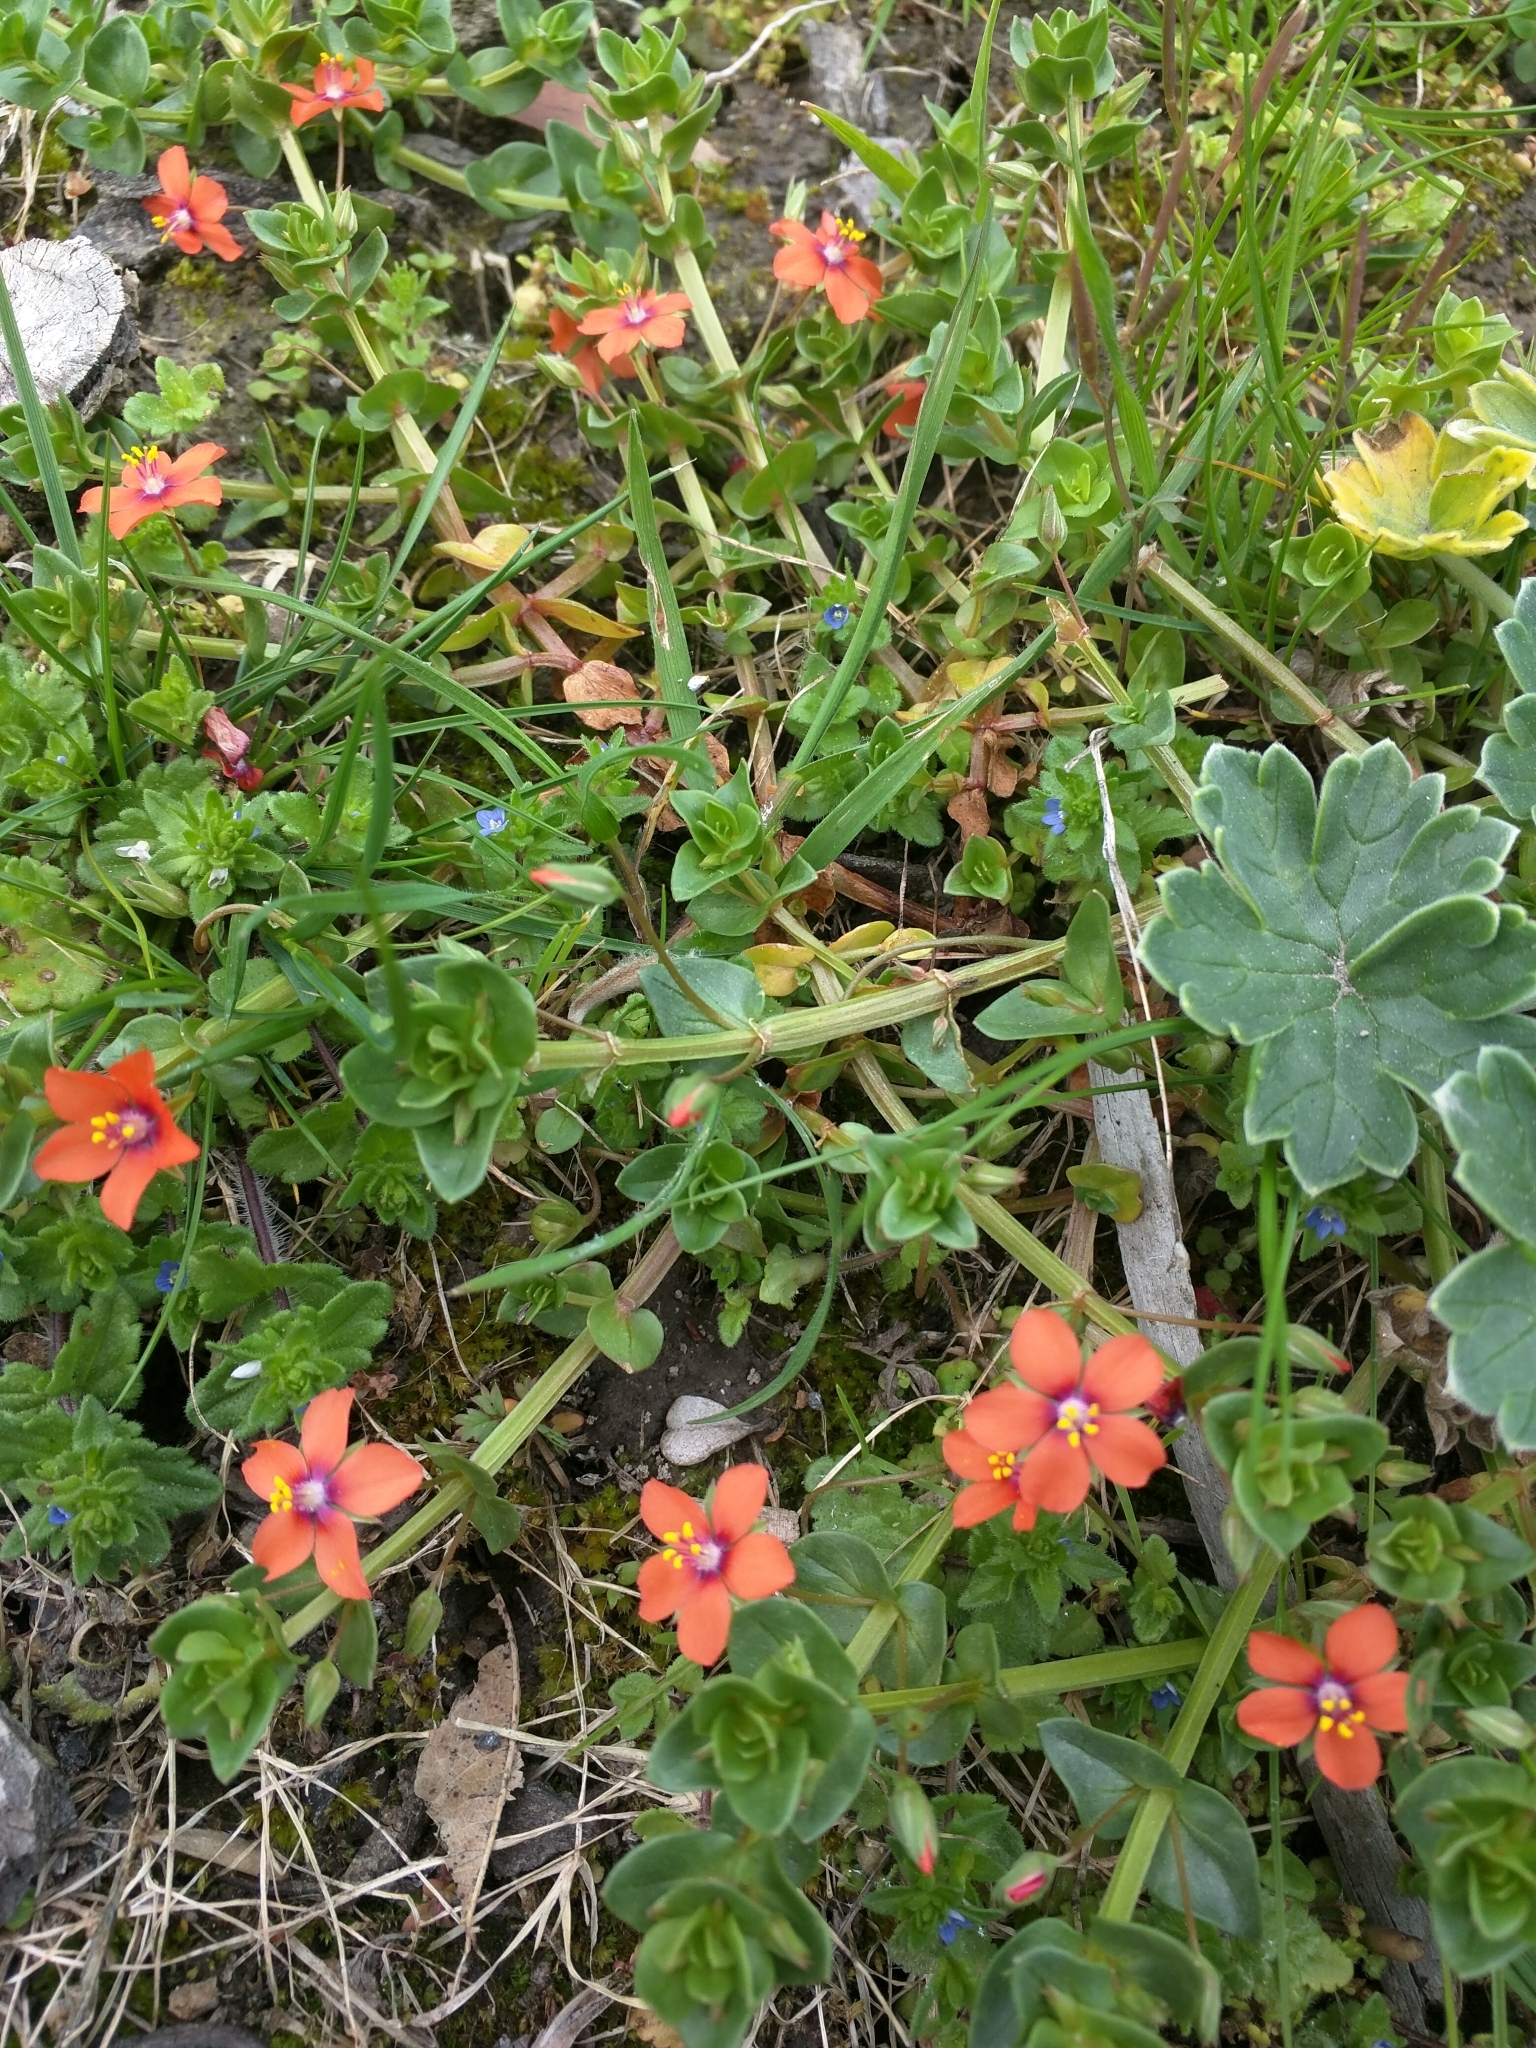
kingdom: Plantae
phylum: Tracheophyta
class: Magnoliopsida
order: Ericales
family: Primulaceae
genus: Lysimachia
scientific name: Lysimachia arvensis
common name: Scarlet pimpernel
